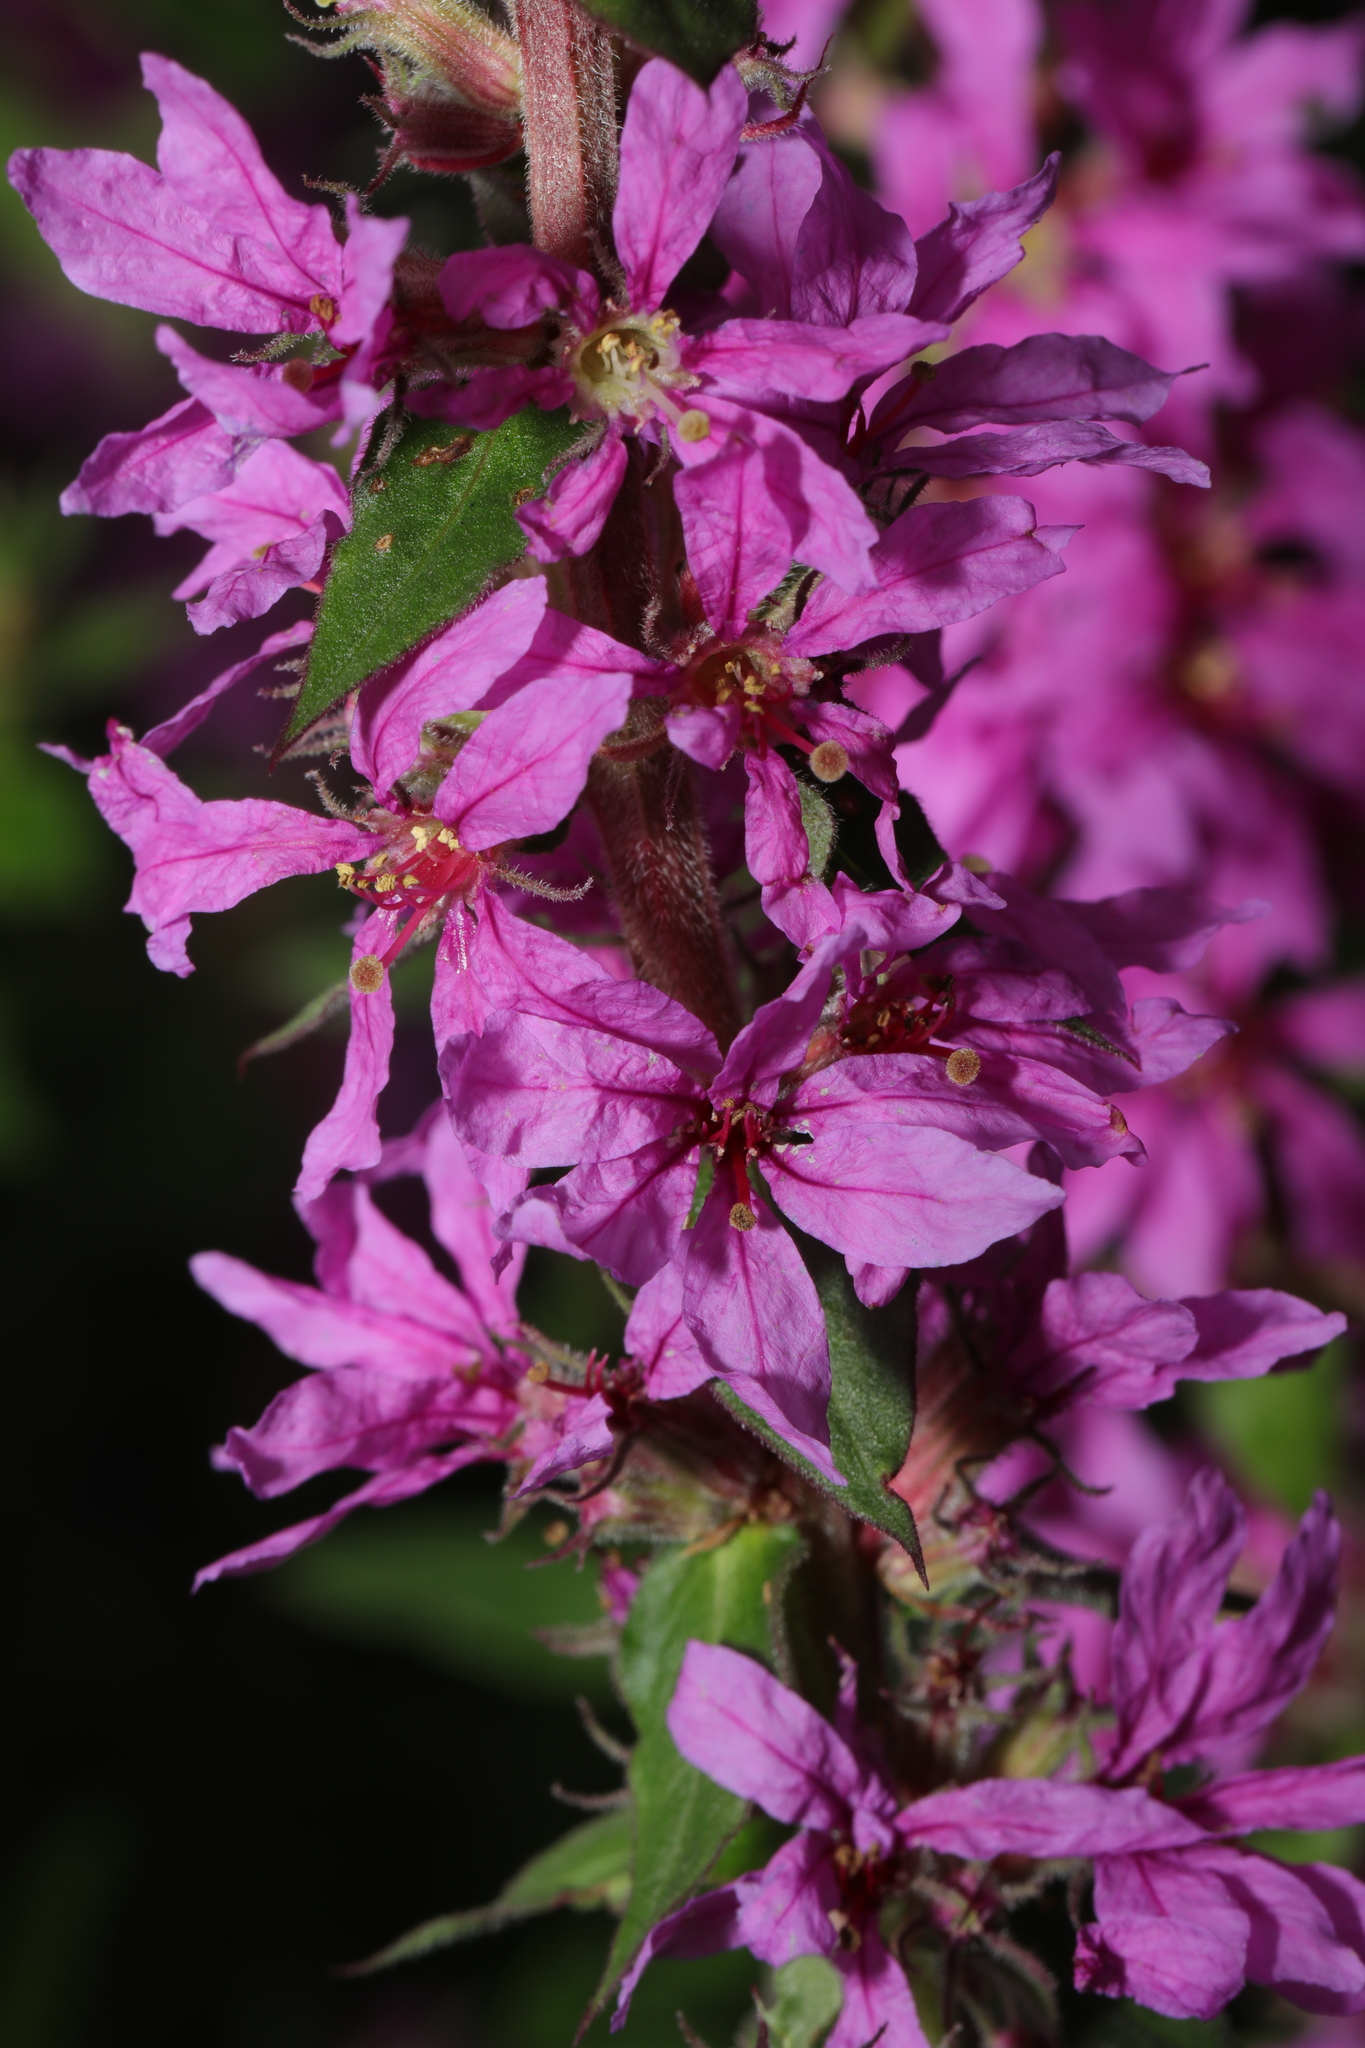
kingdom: Plantae
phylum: Tracheophyta
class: Magnoliopsida
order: Myrtales
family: Lythraceae
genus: Lythrum
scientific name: Lythrum salicaria
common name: Purple loosestrife
